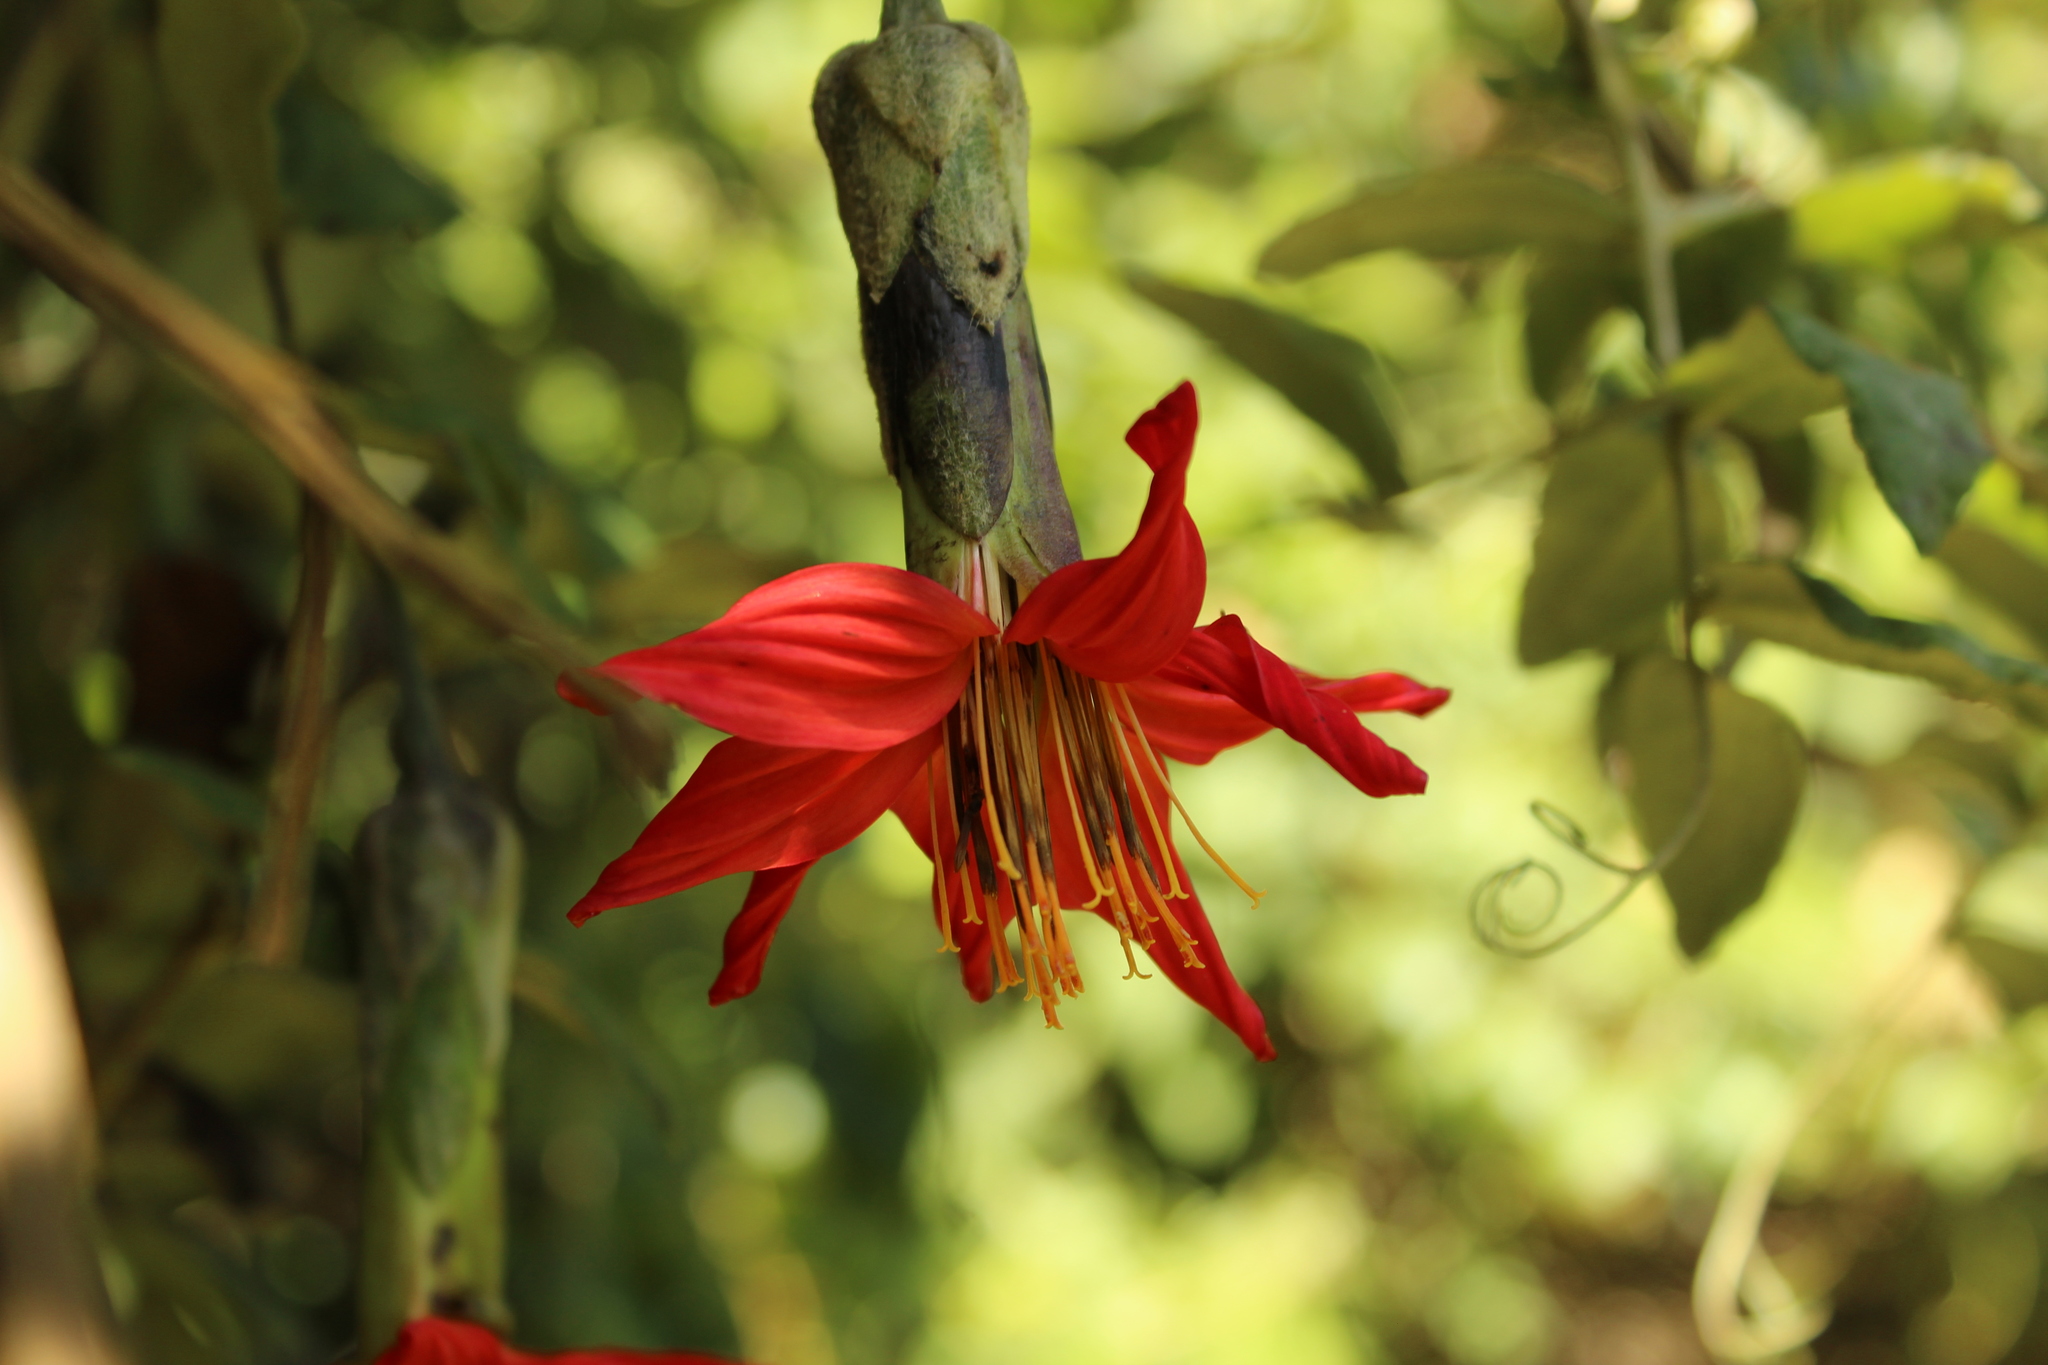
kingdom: Plantae
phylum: Tracheophyta
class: Magnoliopsida
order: Asterales
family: Asteraceae
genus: Mutisia
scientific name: Mutisia clematis
